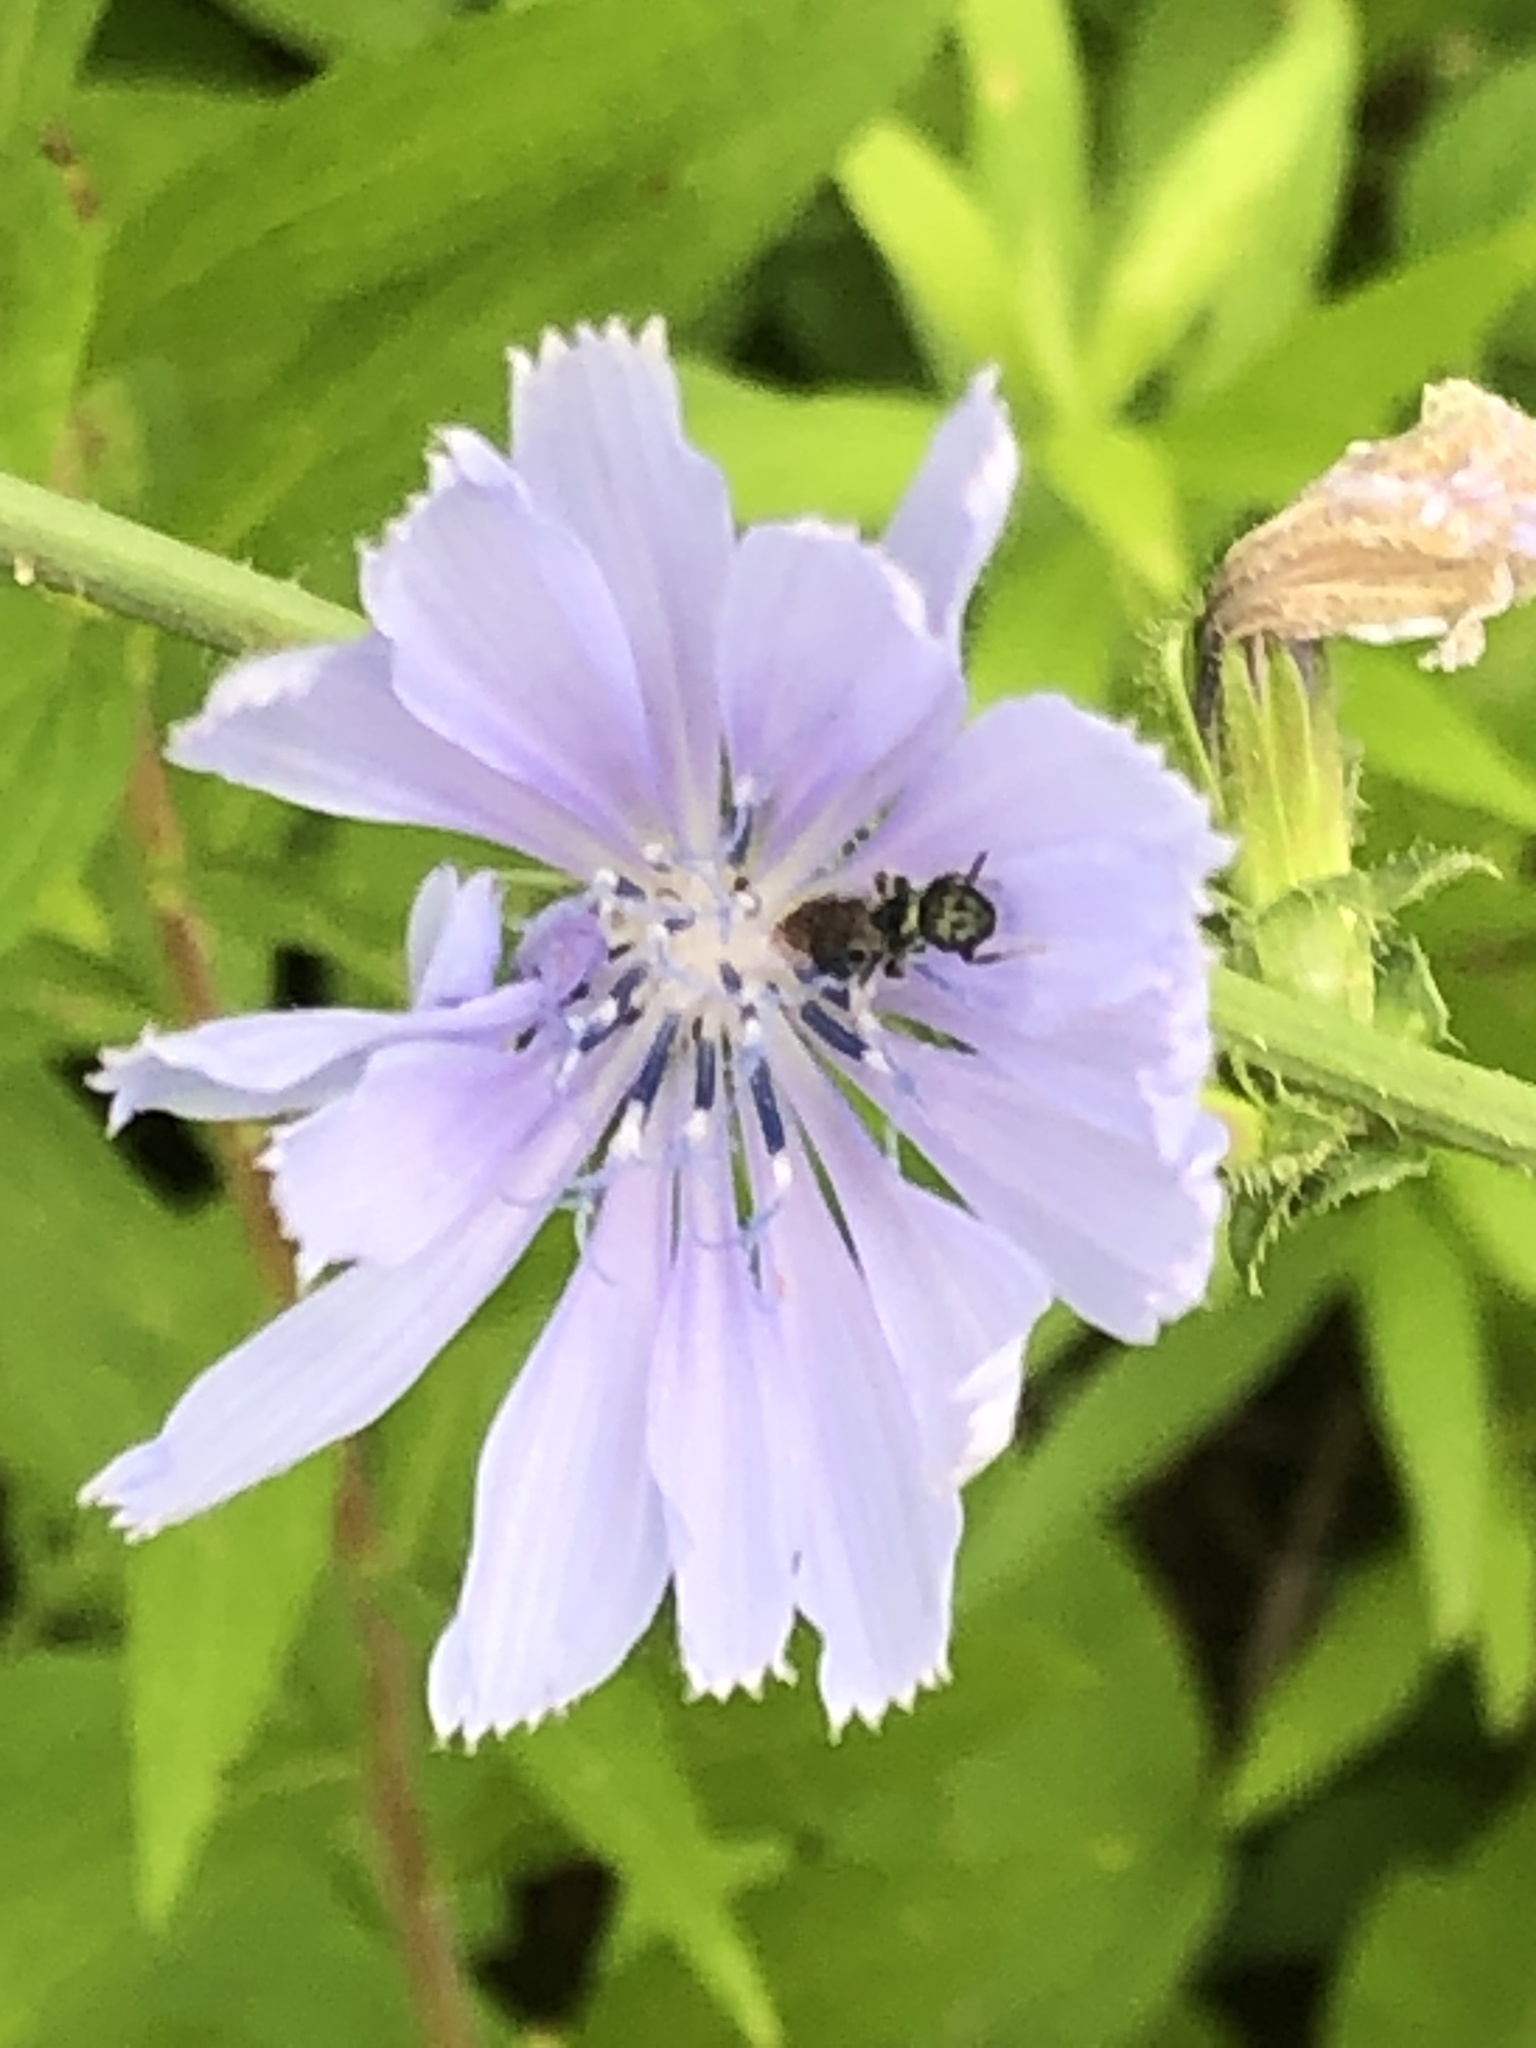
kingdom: Plantae
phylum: Tracheophyta
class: Magnoliopsida
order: Asterales
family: Asteraceae
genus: Cichorium
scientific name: Cichorium intybus
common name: Chicory
